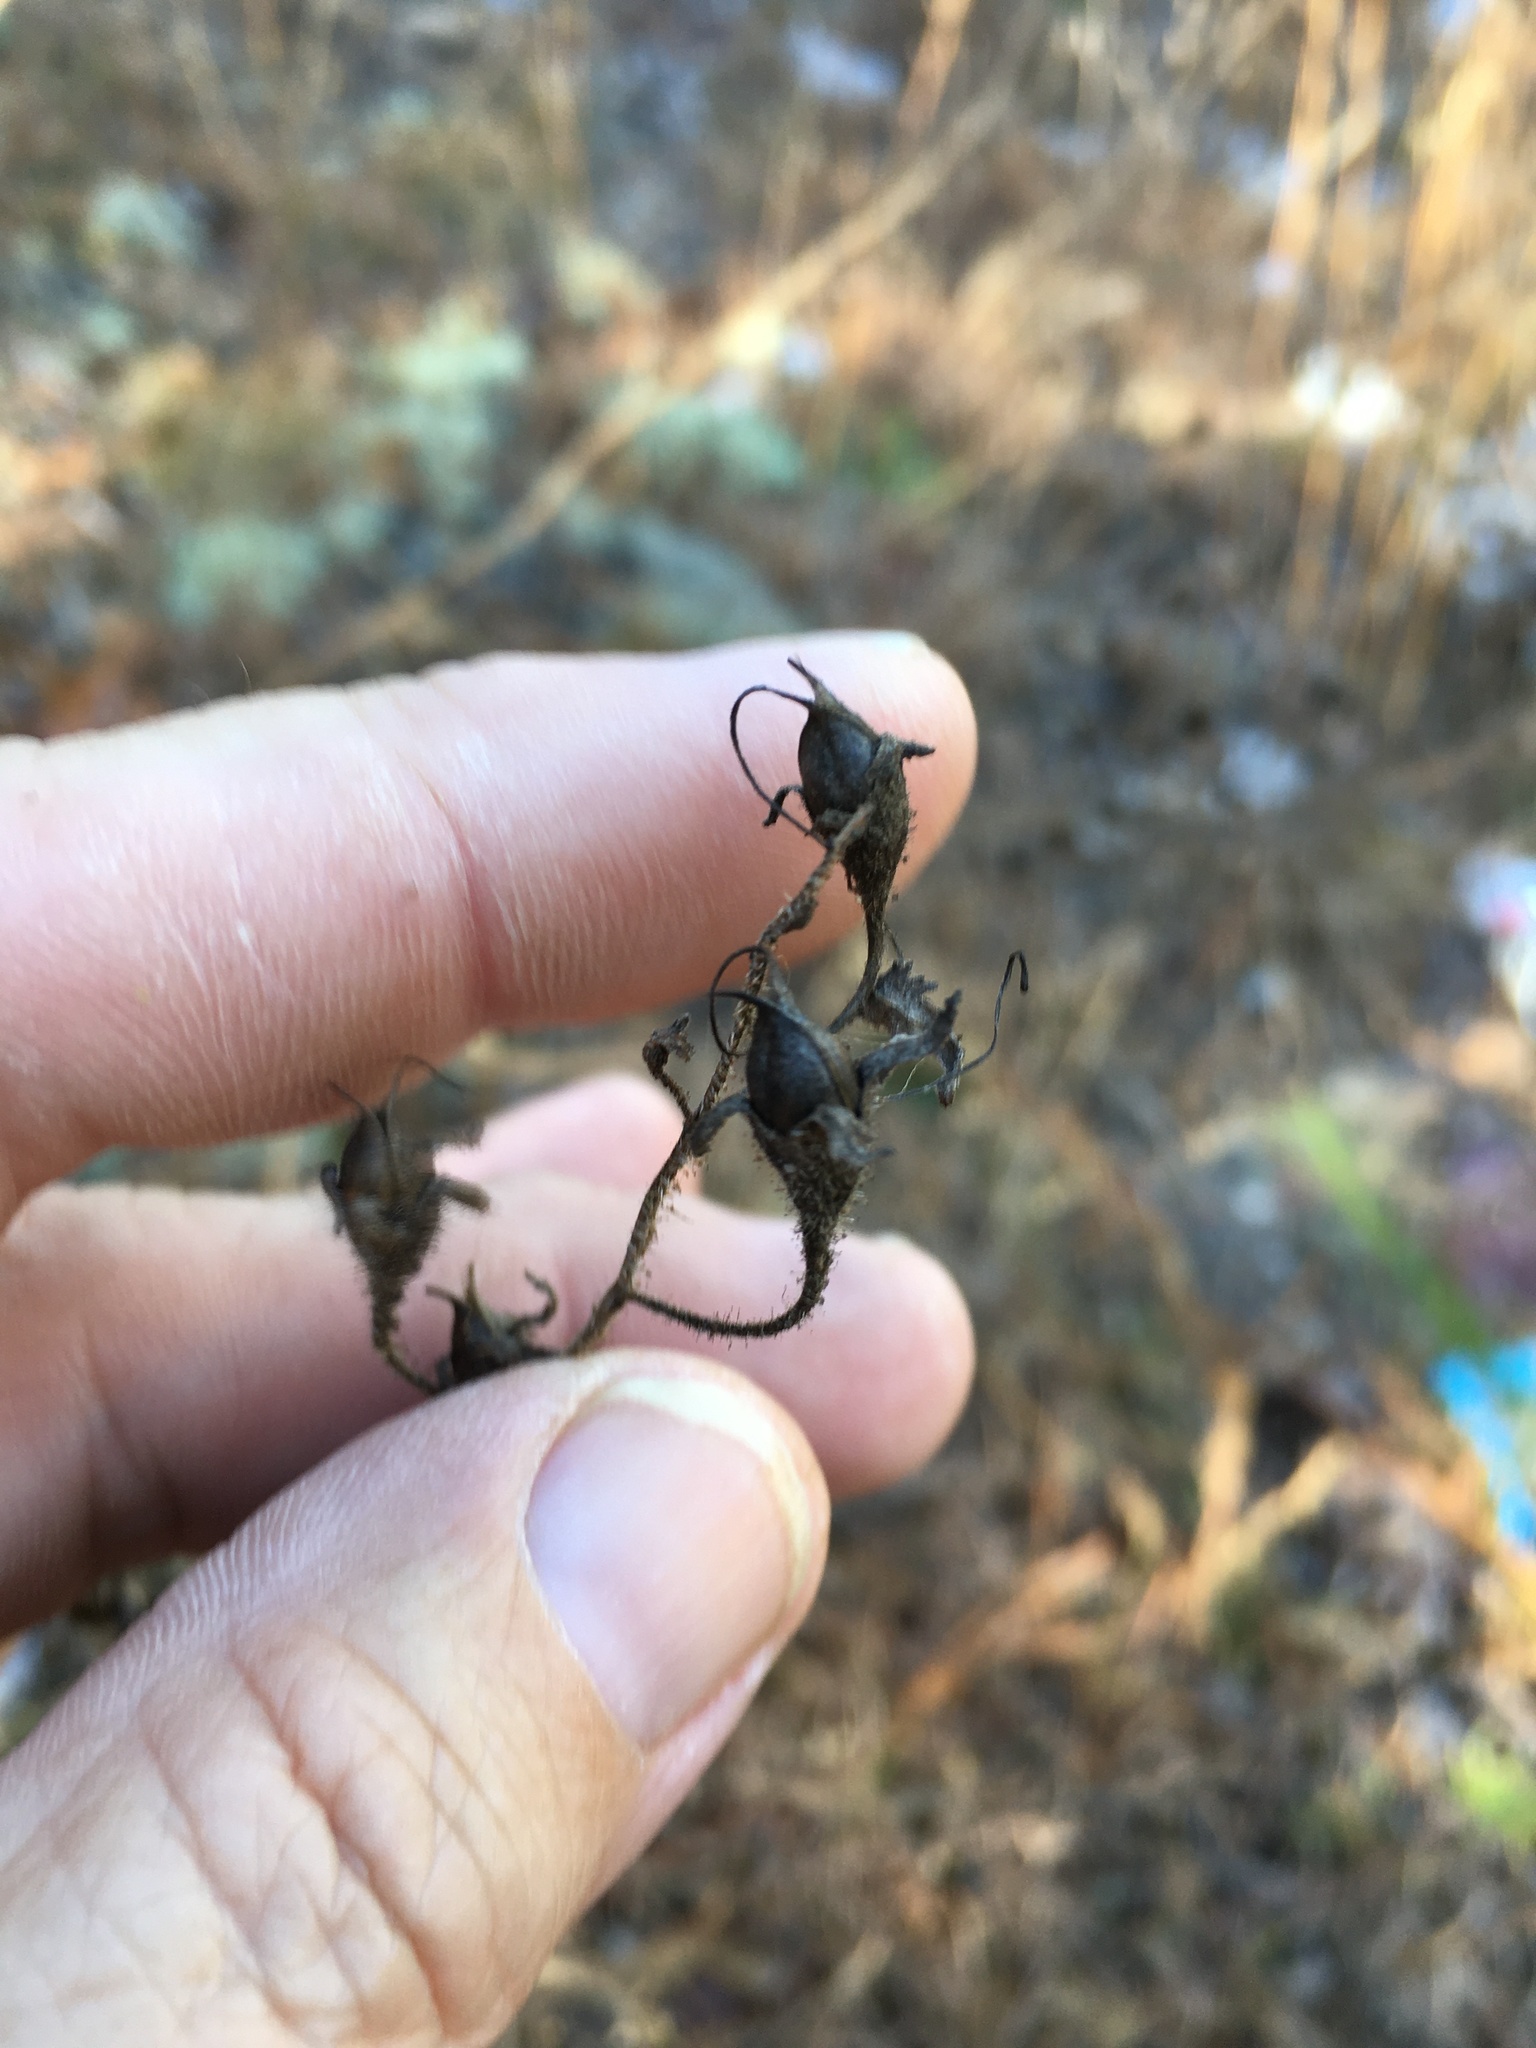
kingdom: Plantae
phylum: Tracheophyta
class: Magnoliopsida
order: Lamiales
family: Orobanchaceae
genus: Aureolaria
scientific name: Aureolaria pectinata
